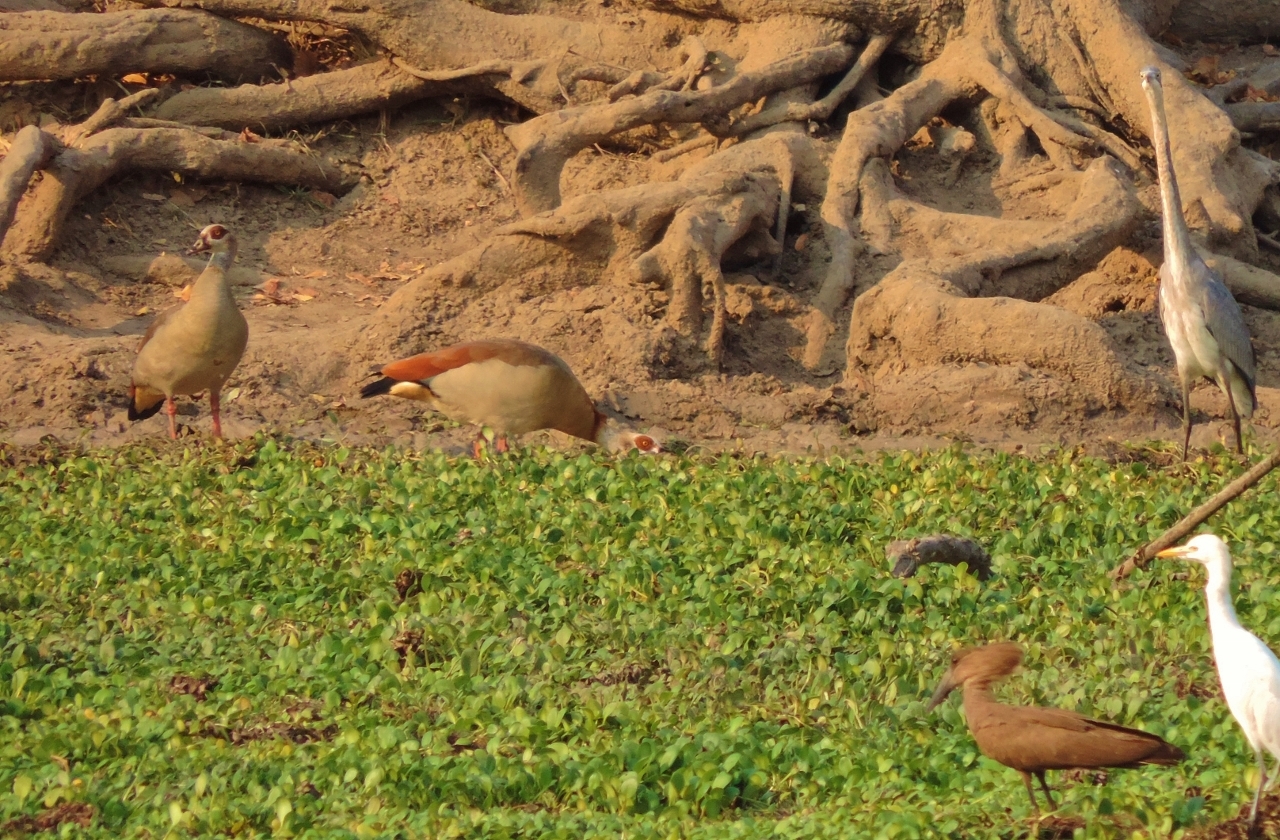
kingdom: Animalia
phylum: Chordata
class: Aves
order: Anseriformes
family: Anatidae
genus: Alopochen
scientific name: Alopochen aegyptiaca
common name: Egyptian goose
